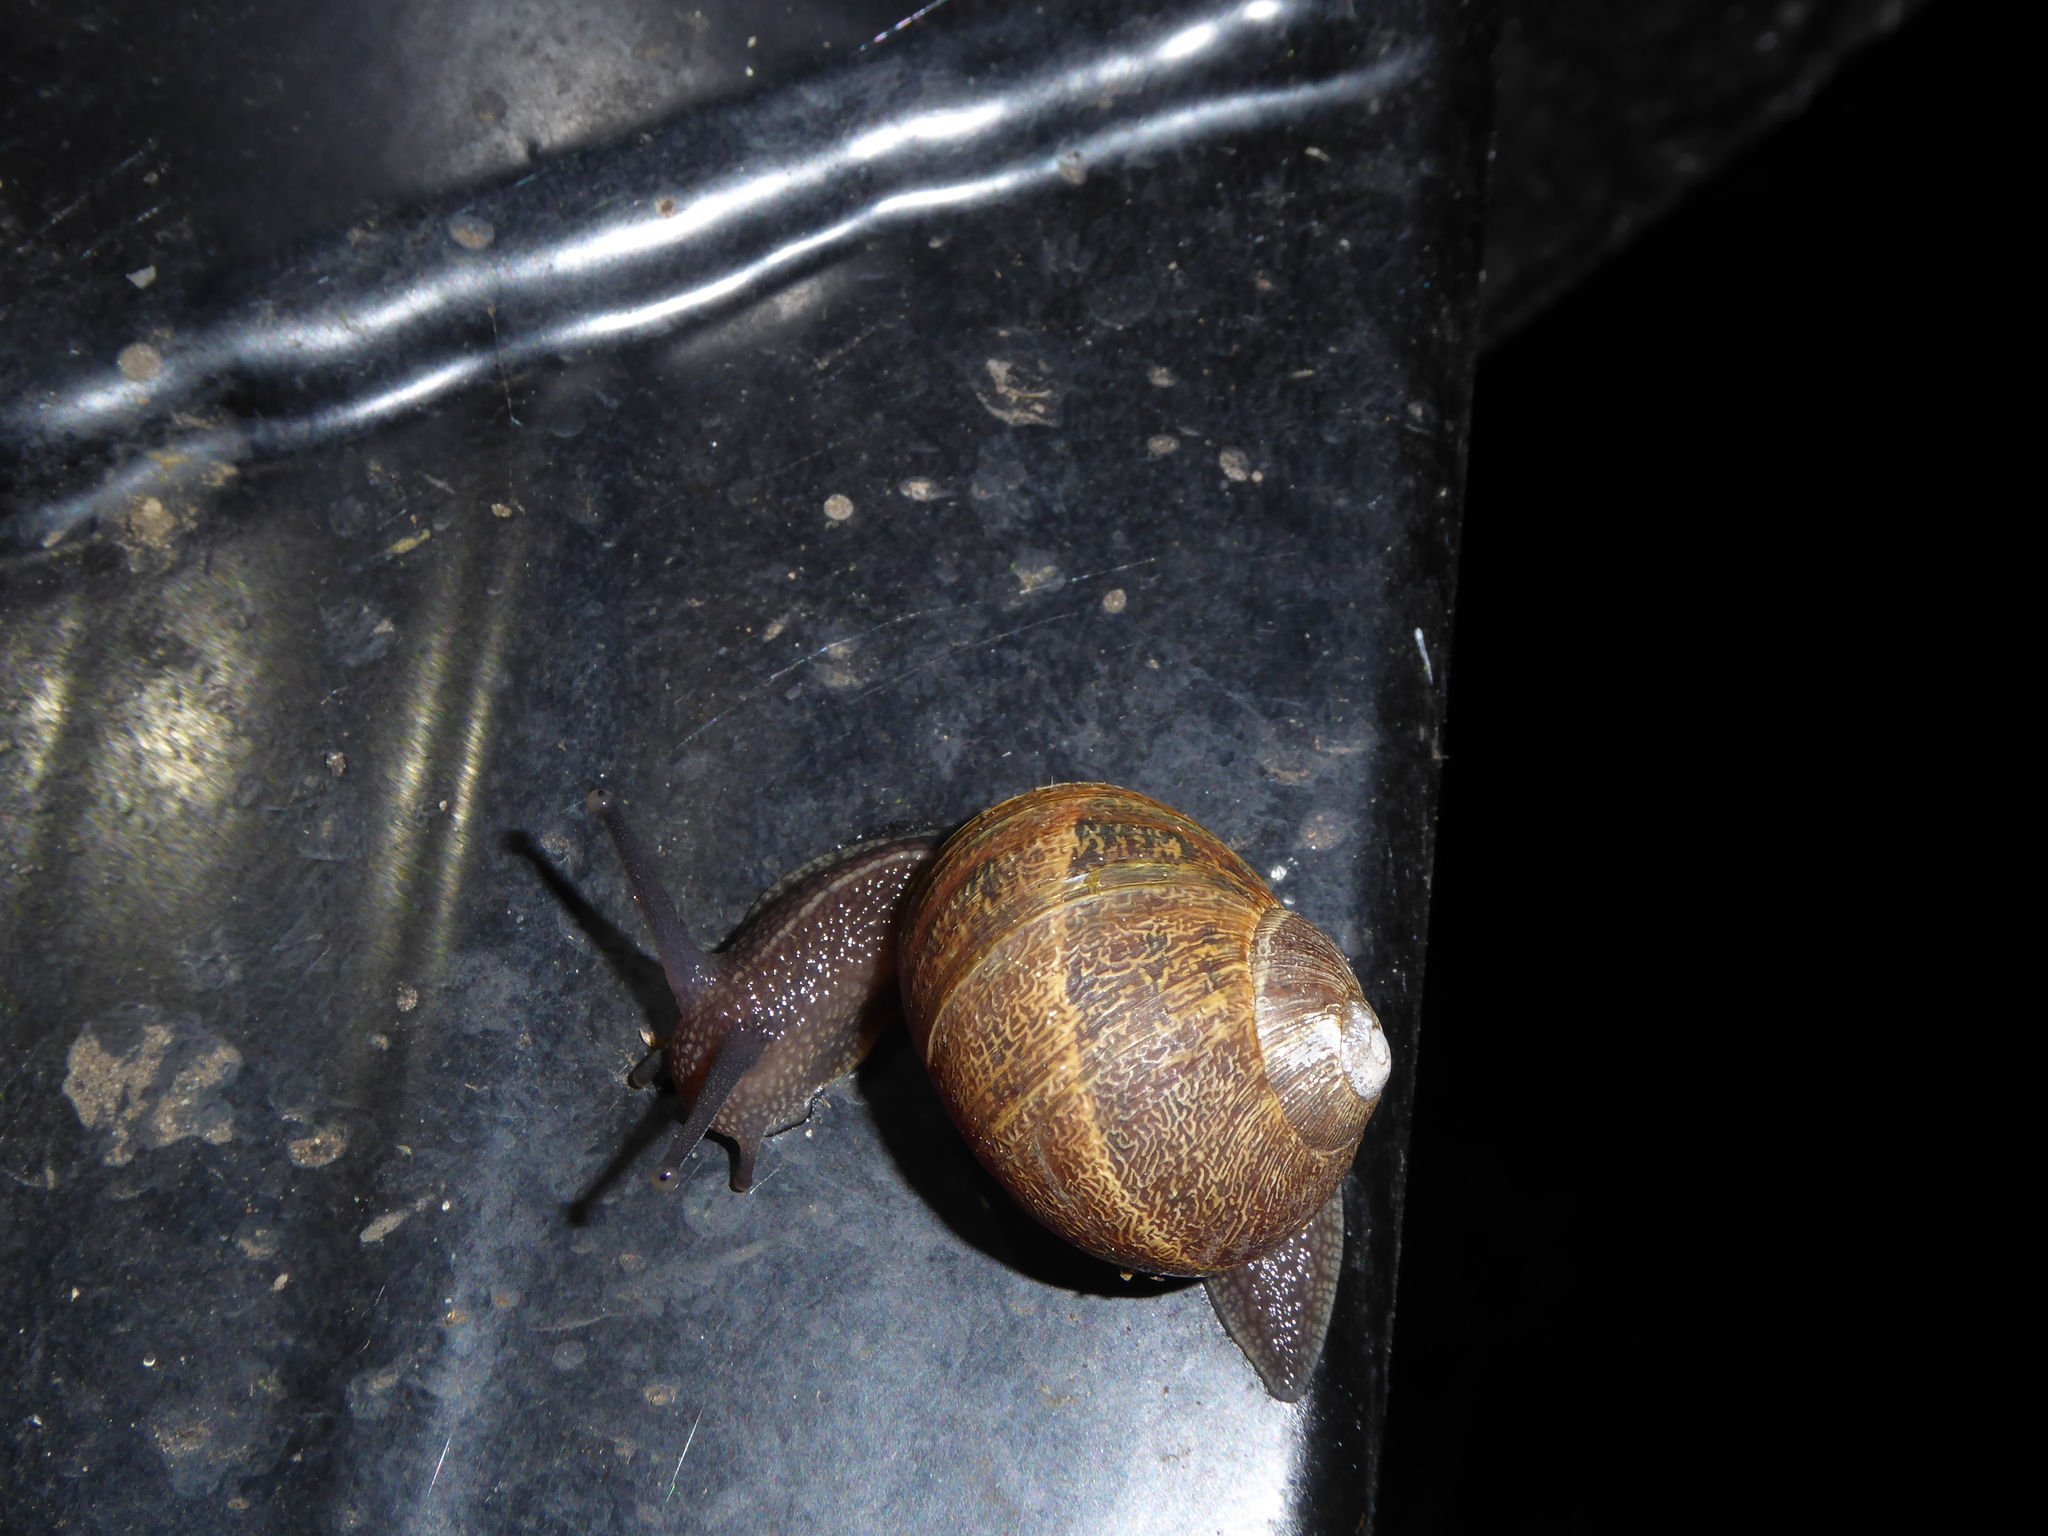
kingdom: Animalia
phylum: Mollusca
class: Gastropoda
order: Stylommatophora
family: Helicidae
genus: Cornu
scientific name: Cornu aspersum
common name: Brown garden snail
